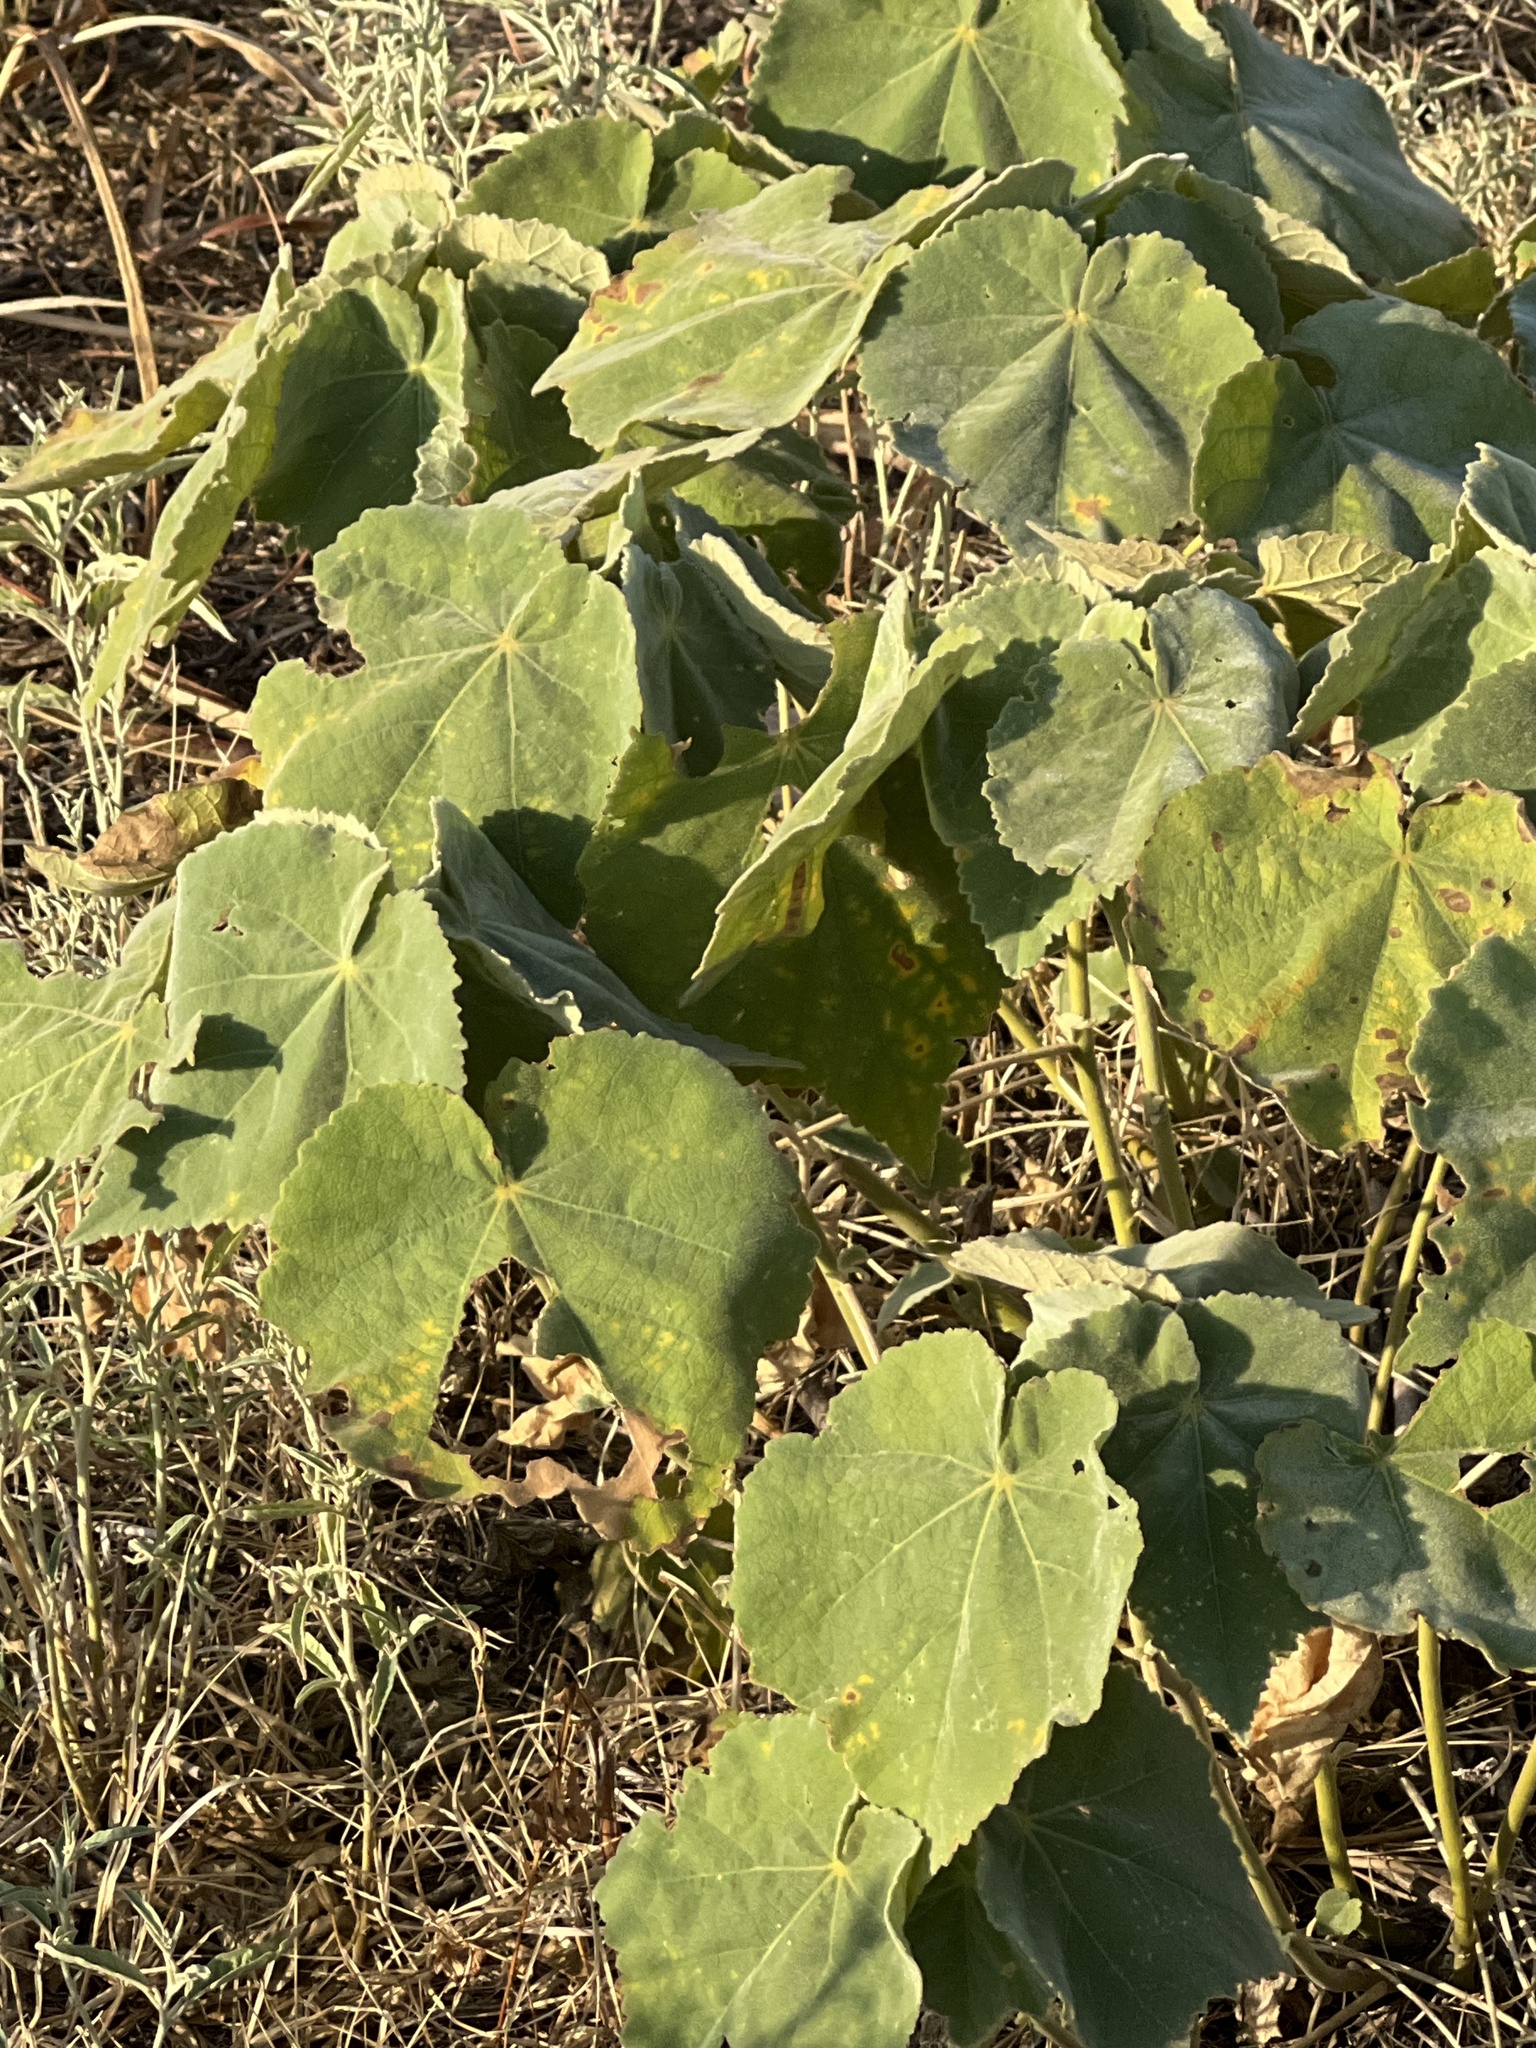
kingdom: Plantae
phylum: Tracheophyta
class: Magnoliopsida
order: Malvales
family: Malvaceae
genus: Allowissadula
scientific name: Allowissadula holosericea
